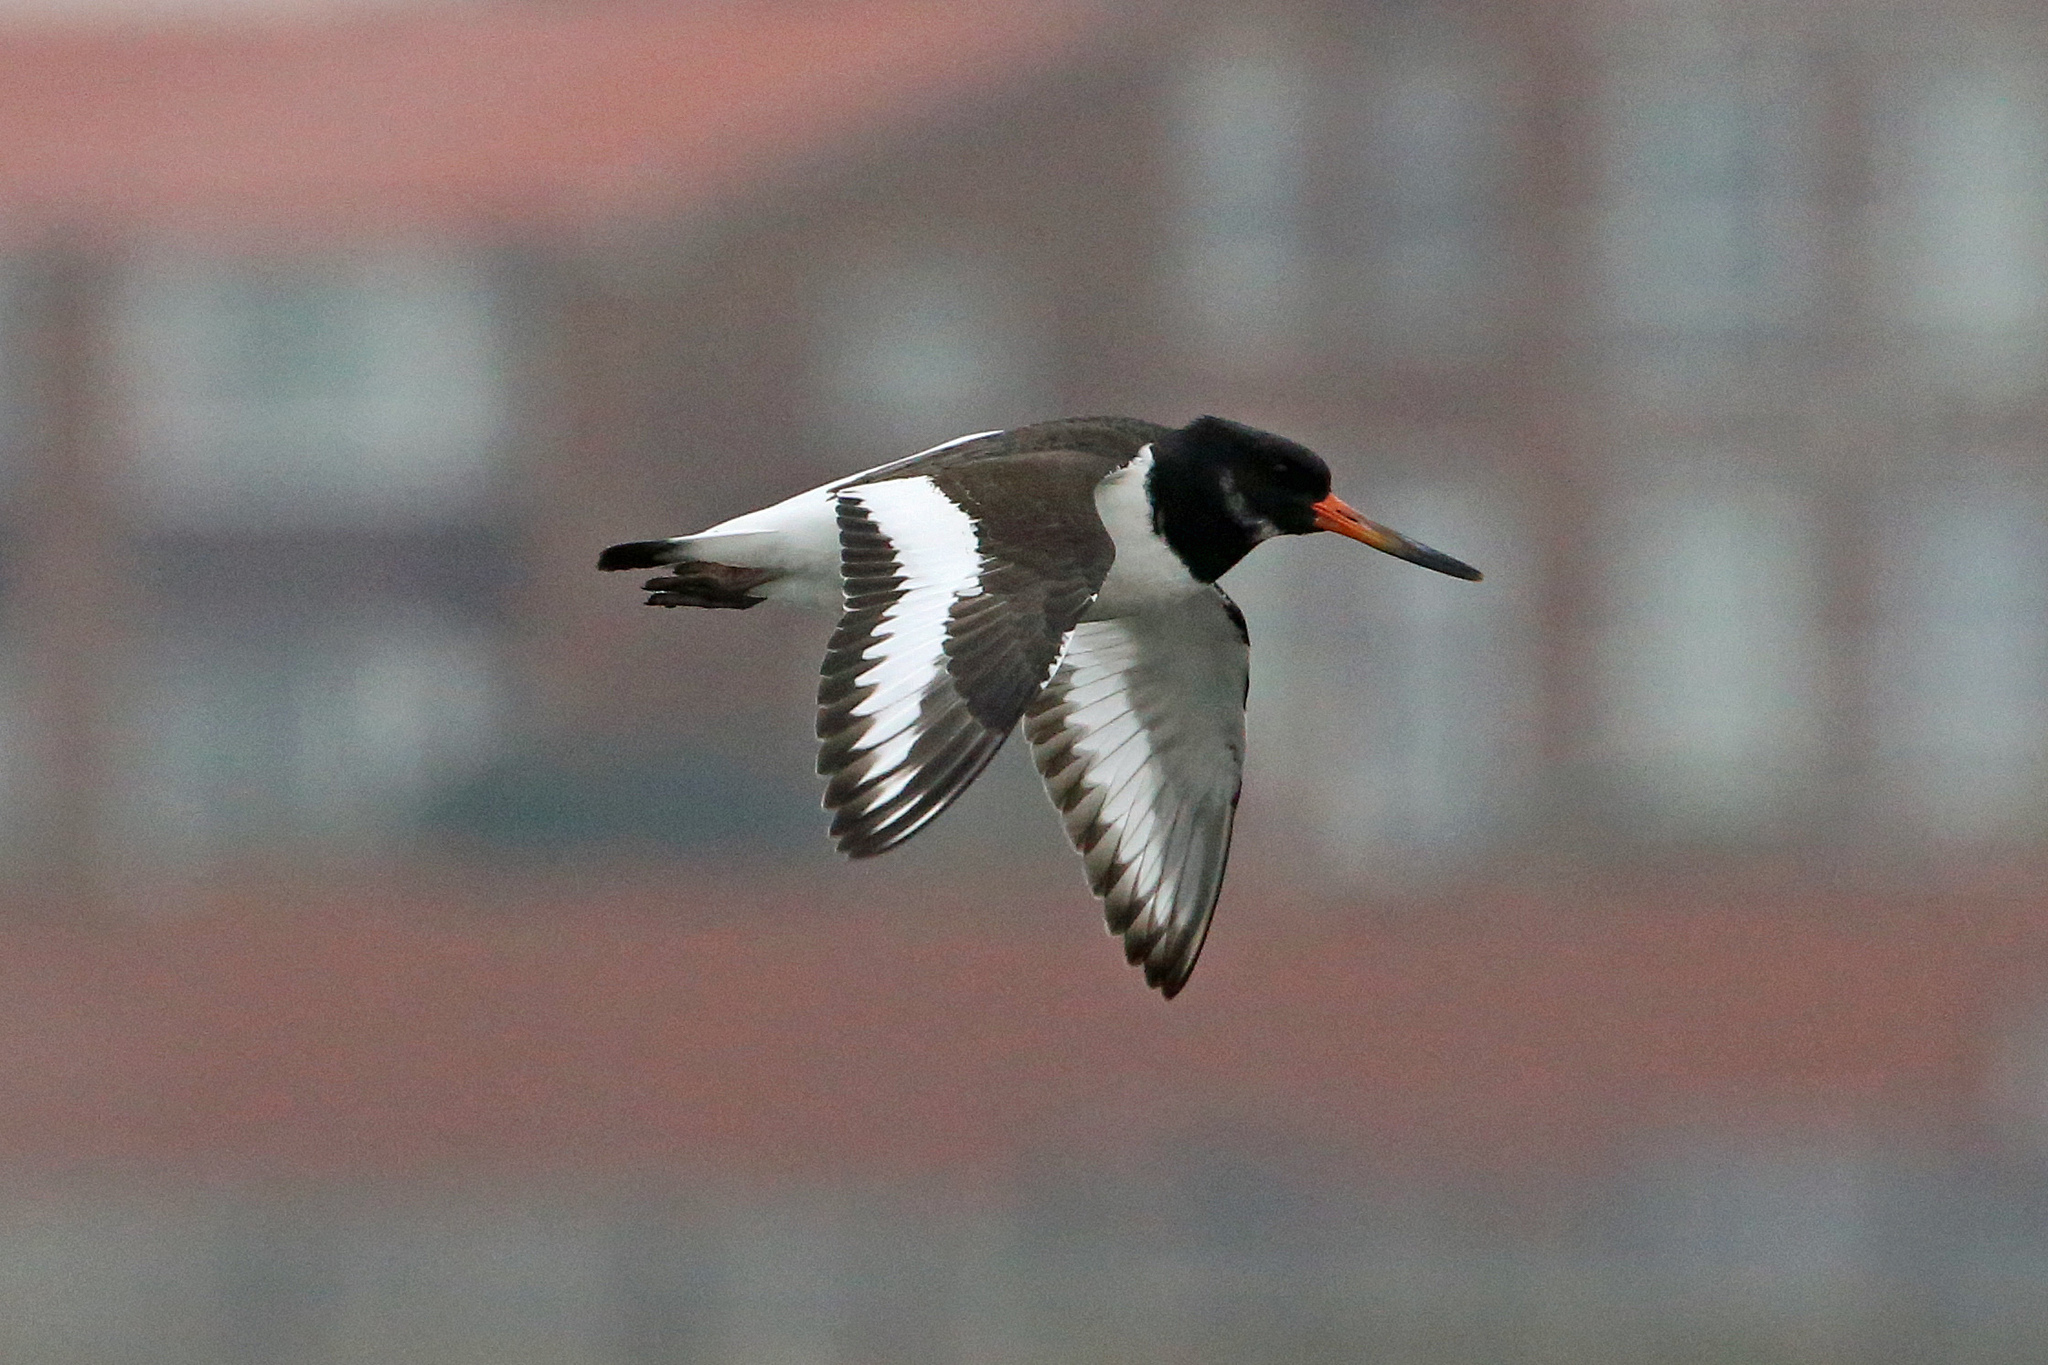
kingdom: Animalia
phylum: Chordata
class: Aves
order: Charadriiformes
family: Haematopodidae
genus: Haematopus
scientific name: Haematopus ostralegus
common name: Eurasian oystercatcher
